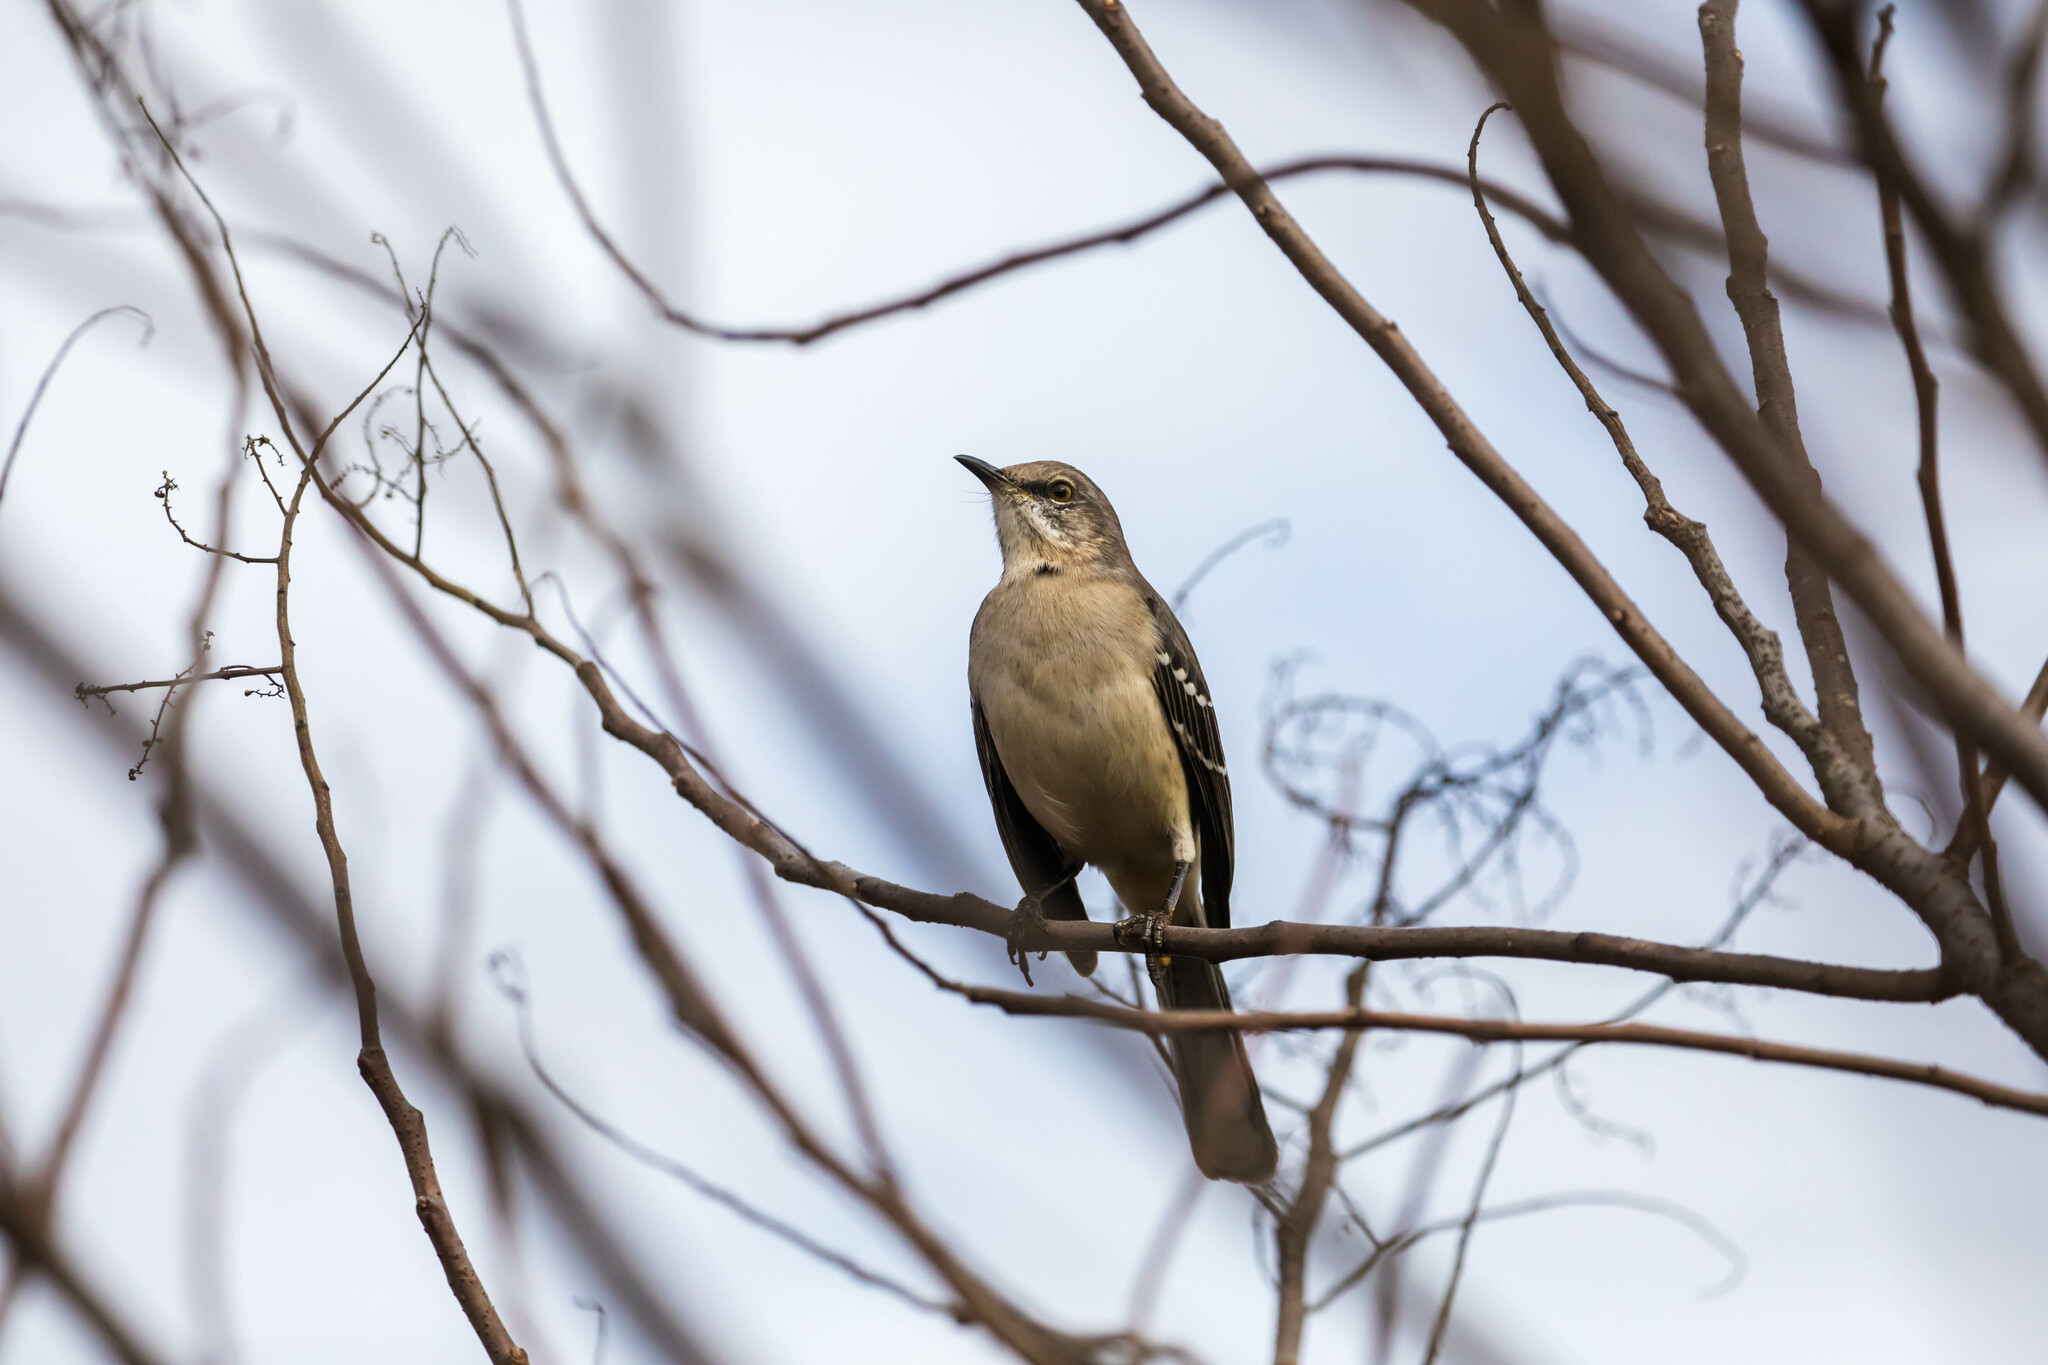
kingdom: Animalia
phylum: Chordata
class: Aves
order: Passeriformes
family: Mimidae
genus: Mimus
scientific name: Mimus polyglottos
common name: Northern mockingbird
